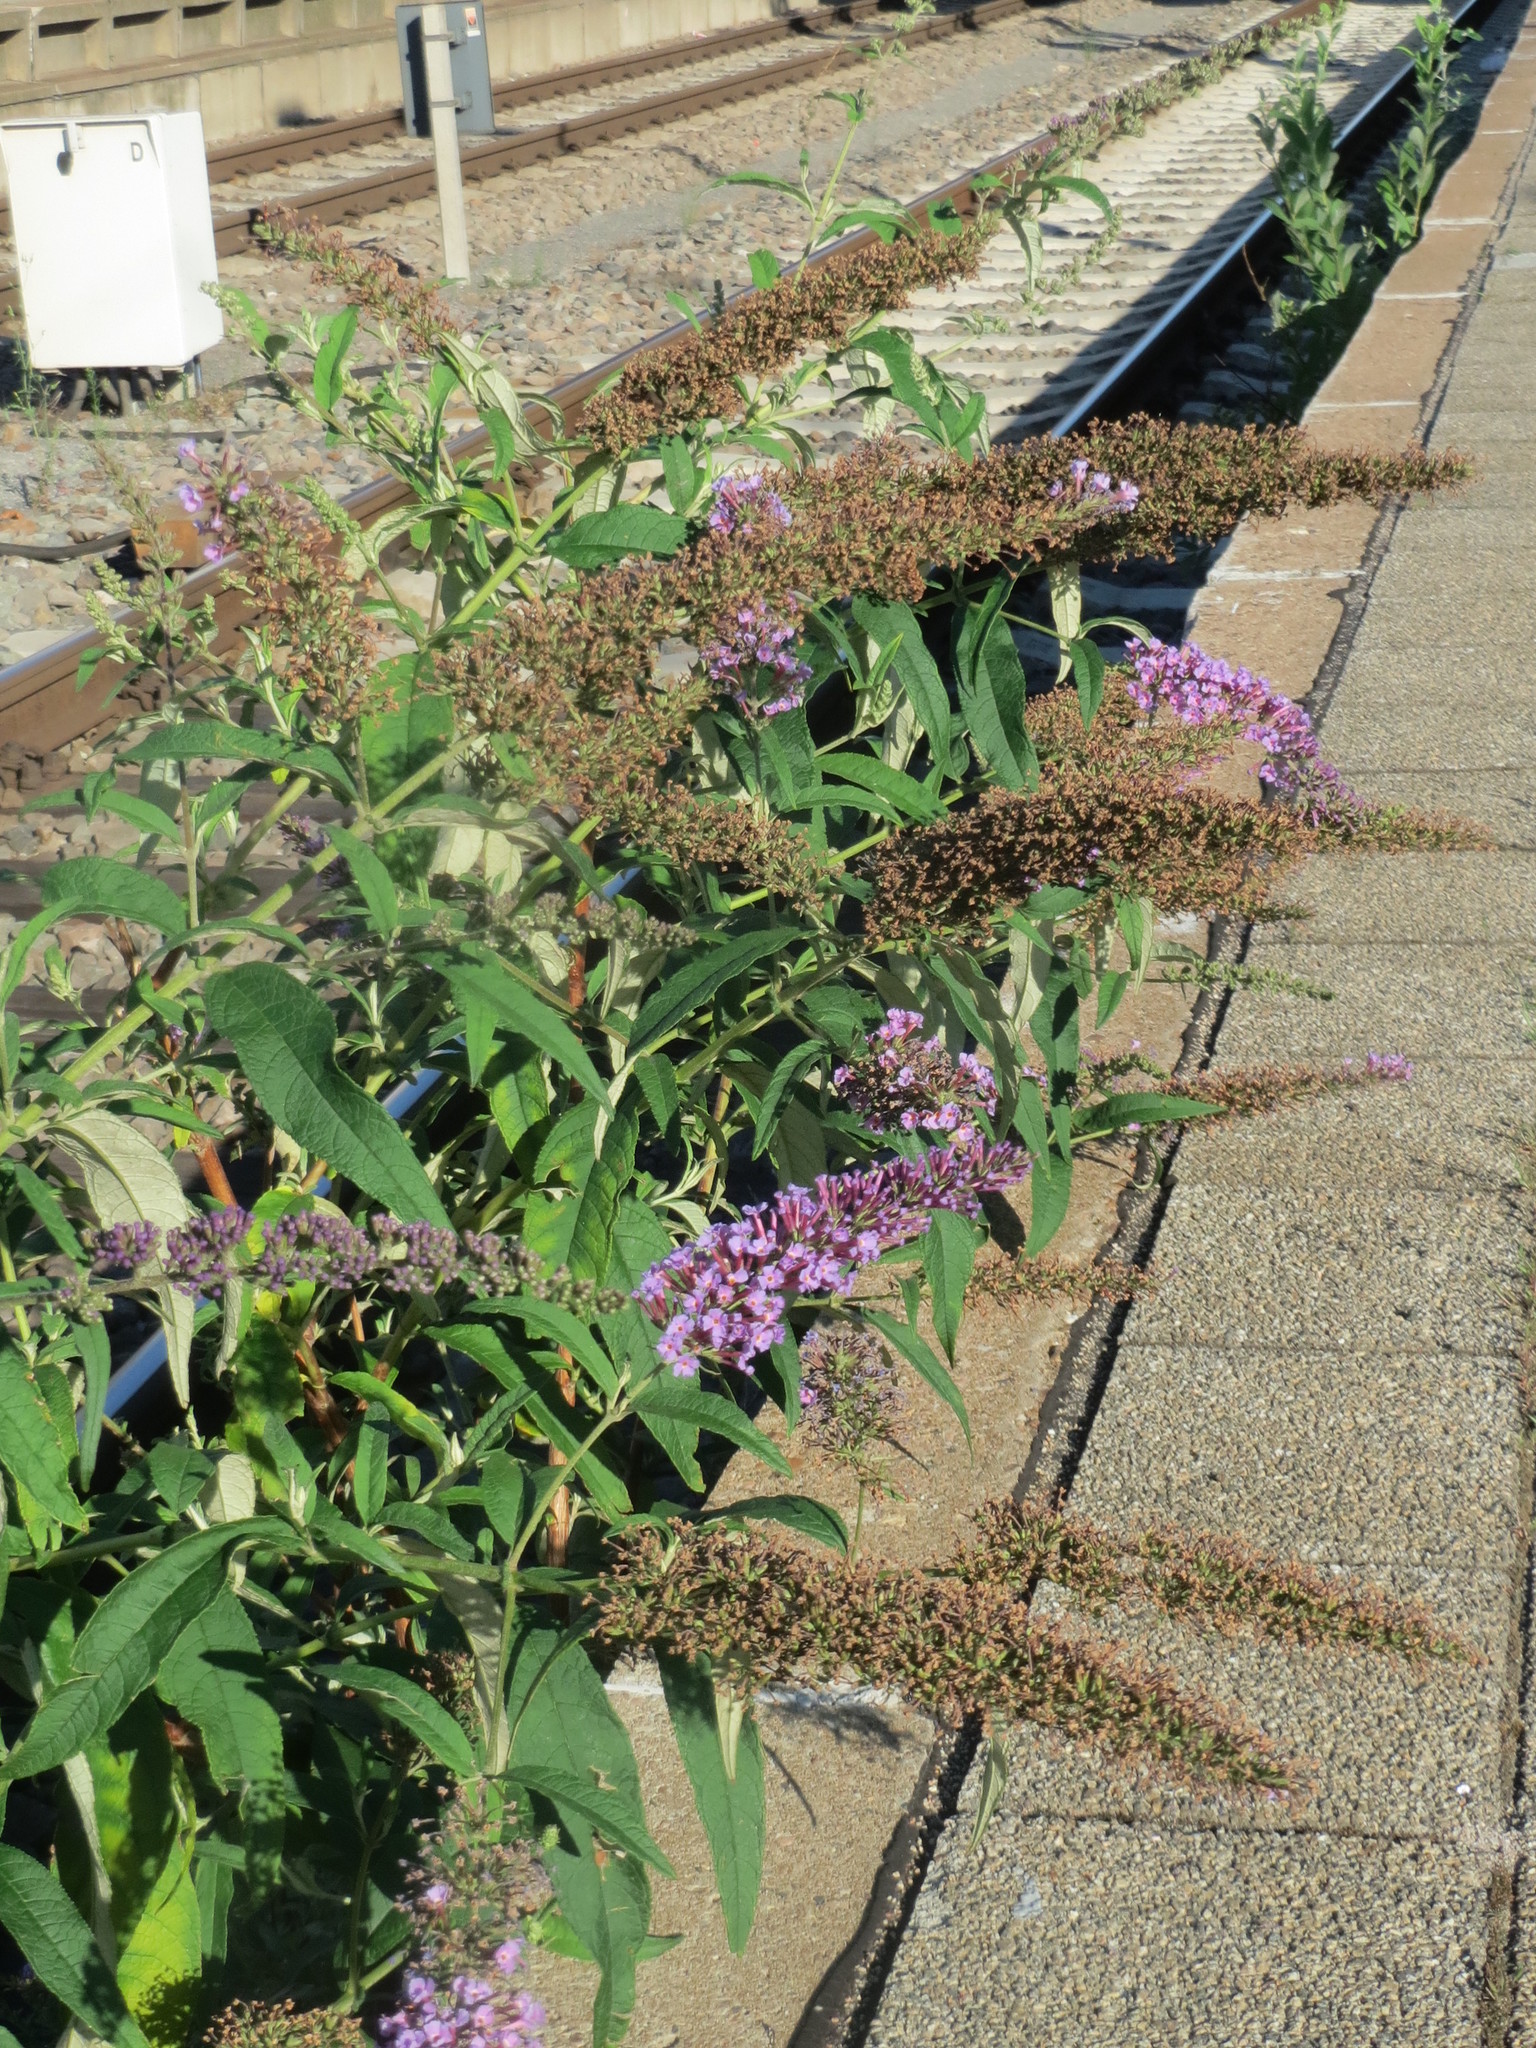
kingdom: Plantae
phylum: Tracheophyta
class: Magnoliopsida
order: Lamiales
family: Scrophulariaceae
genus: Buddleja
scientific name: Buddleja davidii
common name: Butterfly-bush
